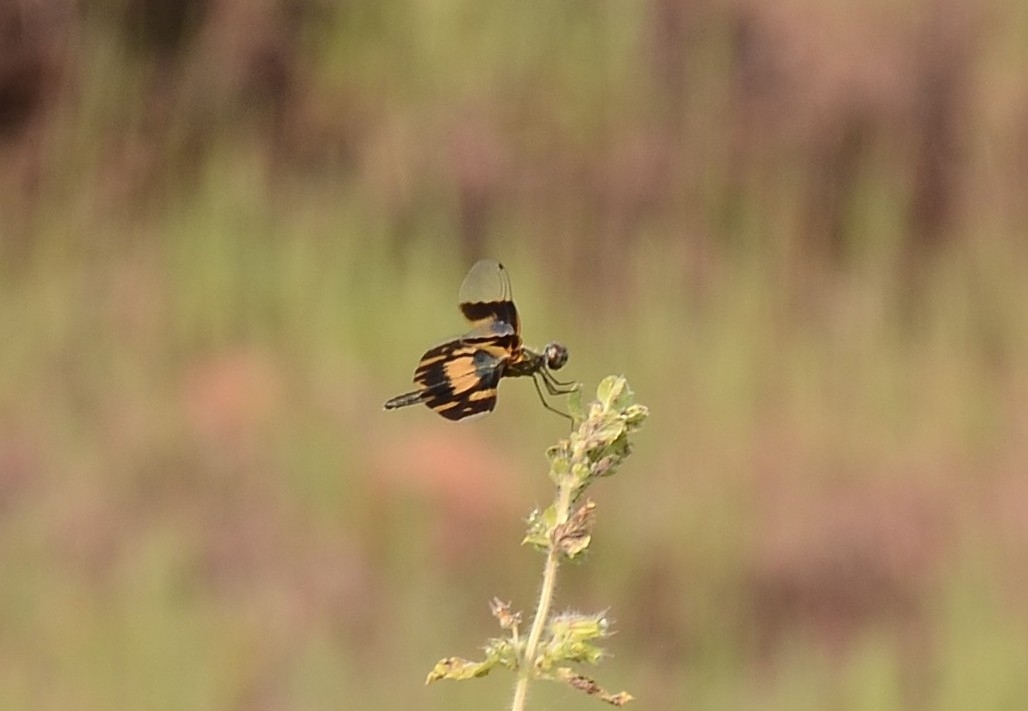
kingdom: Animalia
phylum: Arthropoda
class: Insecta
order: Odonata
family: Libellulidae
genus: Rhyothemis
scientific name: Rhyothemis variegata
